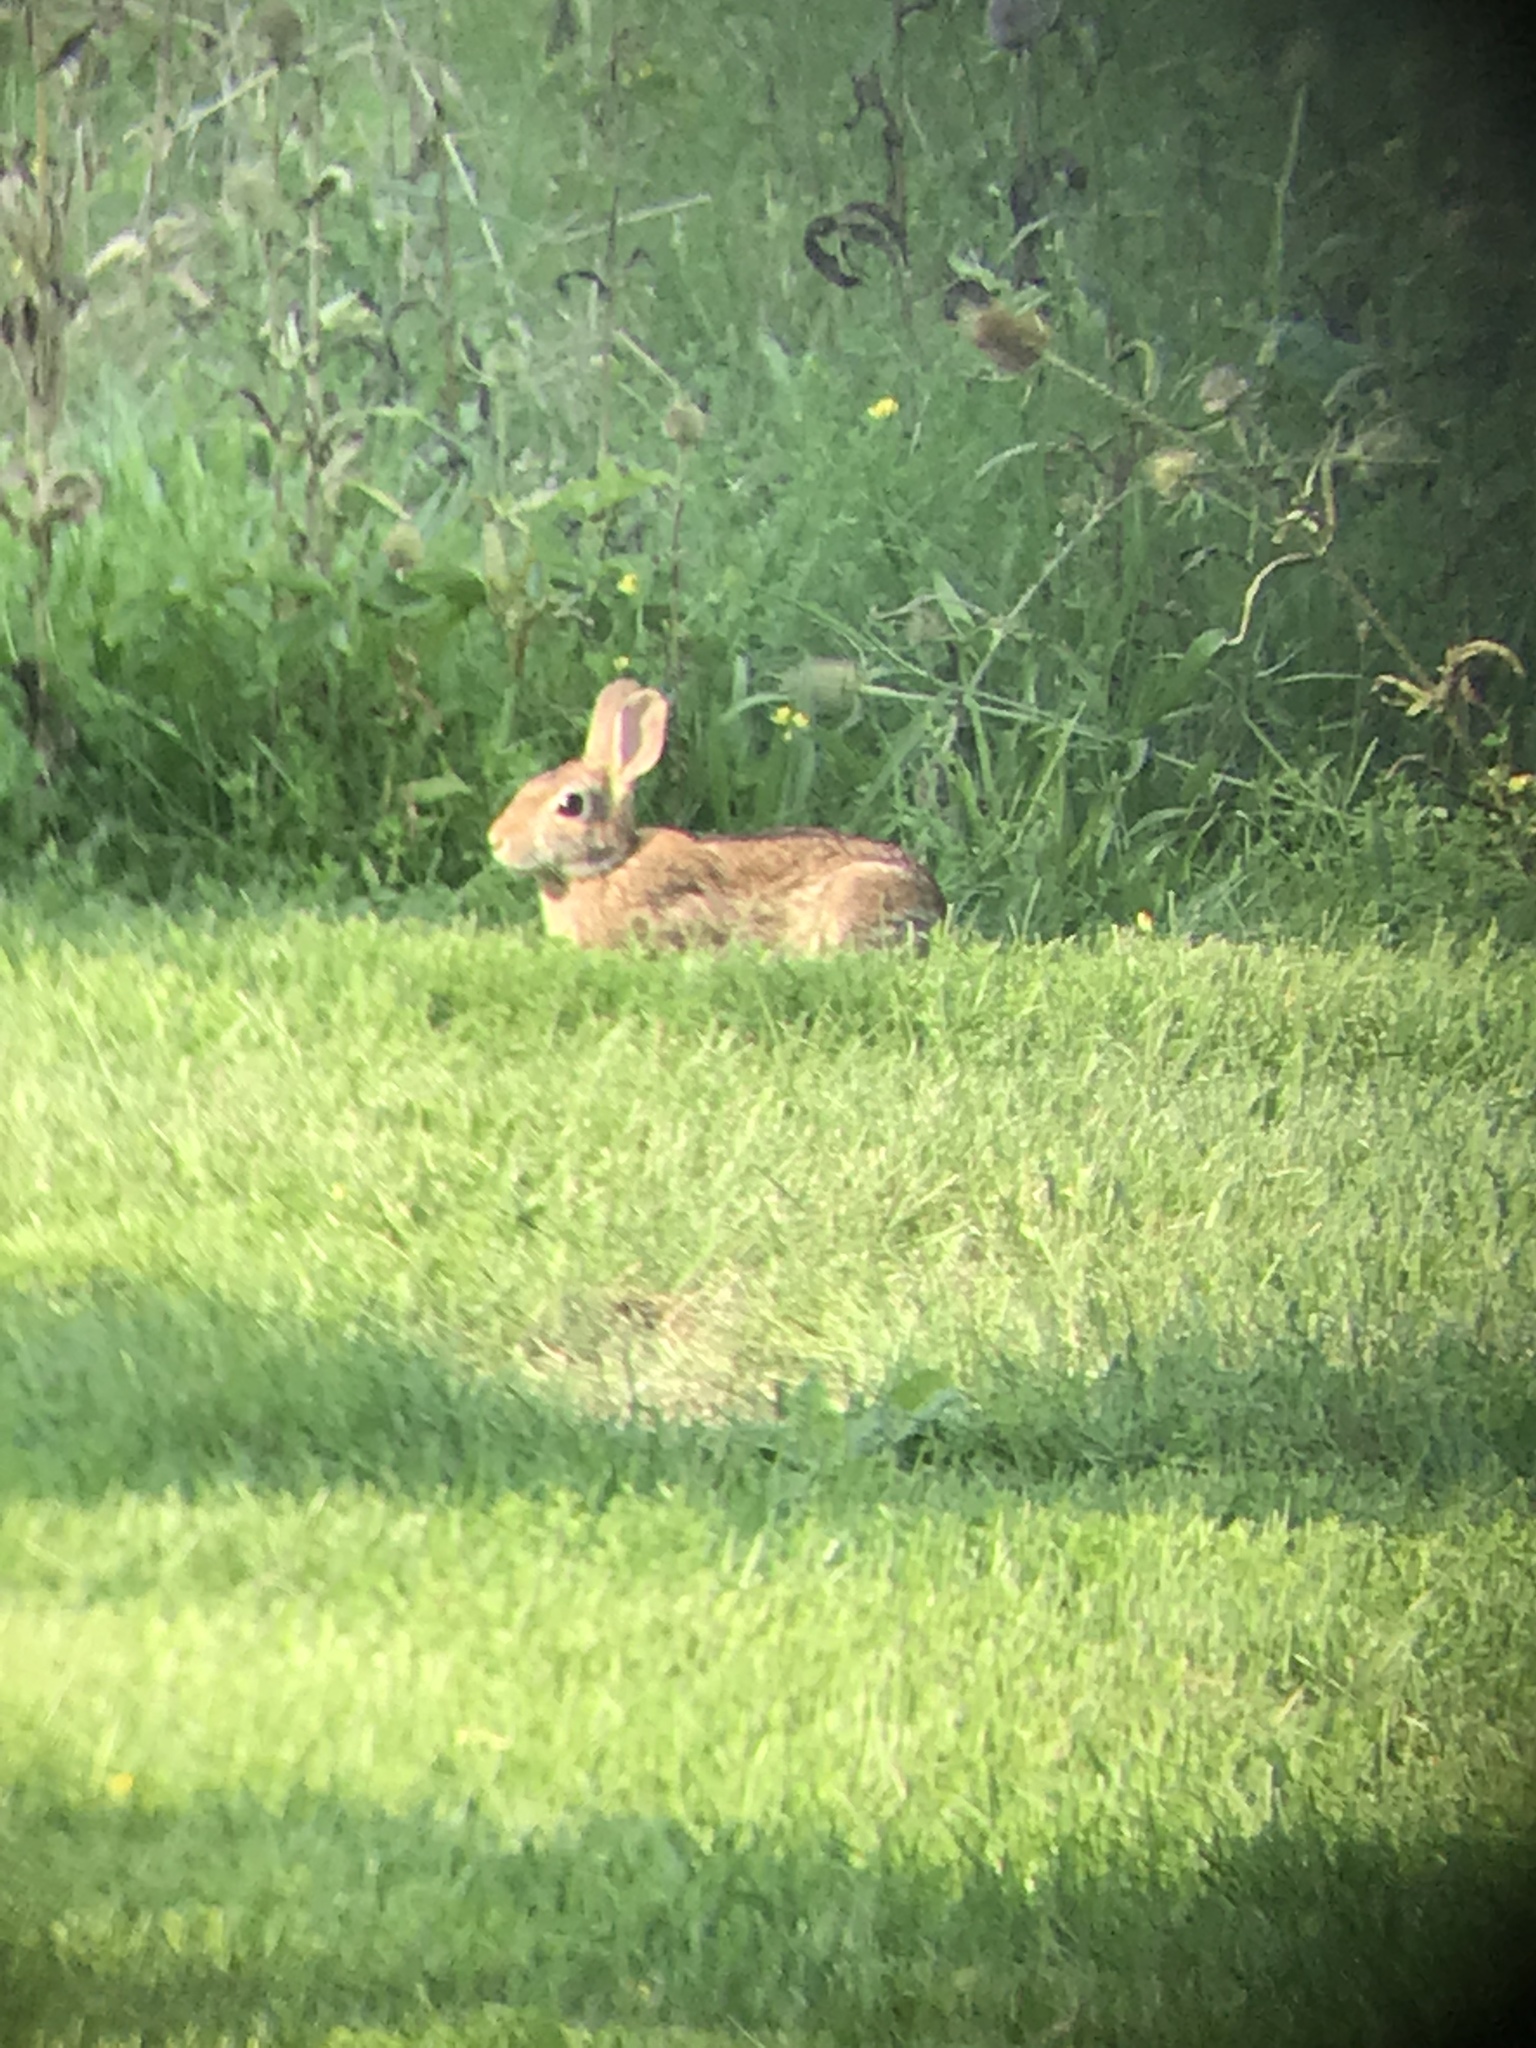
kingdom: Animalia
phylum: Chordata
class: Mammalia
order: Lagomorpha
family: Leporidae
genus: Sylvilagus
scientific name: Sylvilagus floridanus
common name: Eastern cottontail
